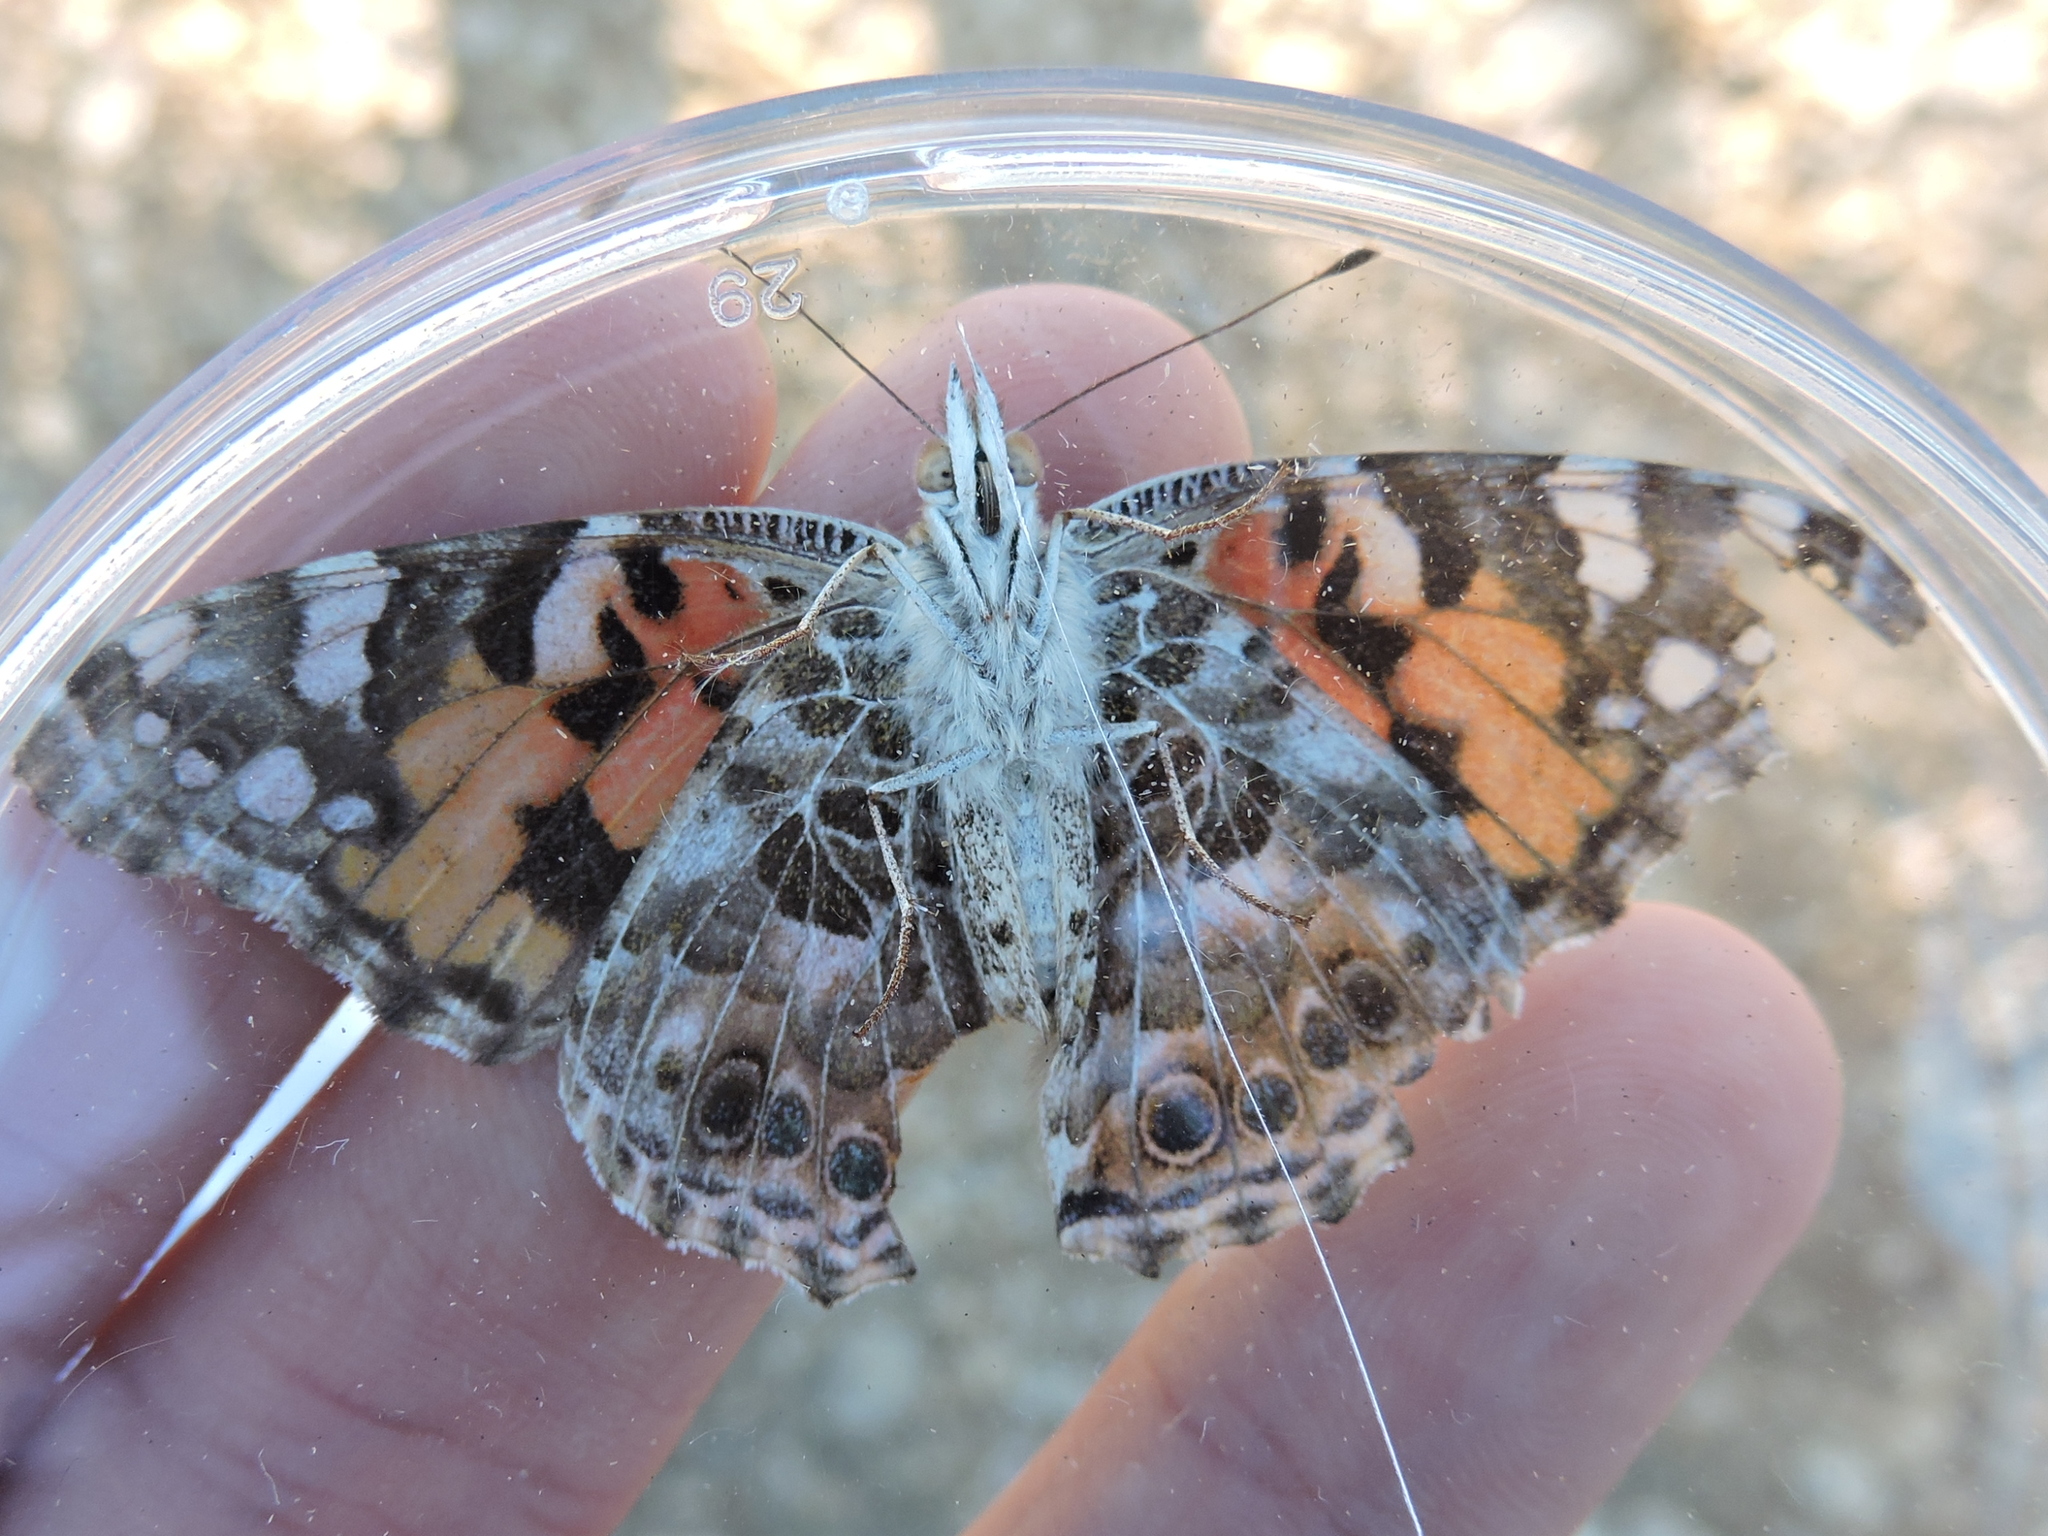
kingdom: Animalia
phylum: Arthropoda
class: Insecta
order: Lepidoptera
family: Nymphalidae
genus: Vanessa
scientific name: Vanessa cardui
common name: Painted lady
